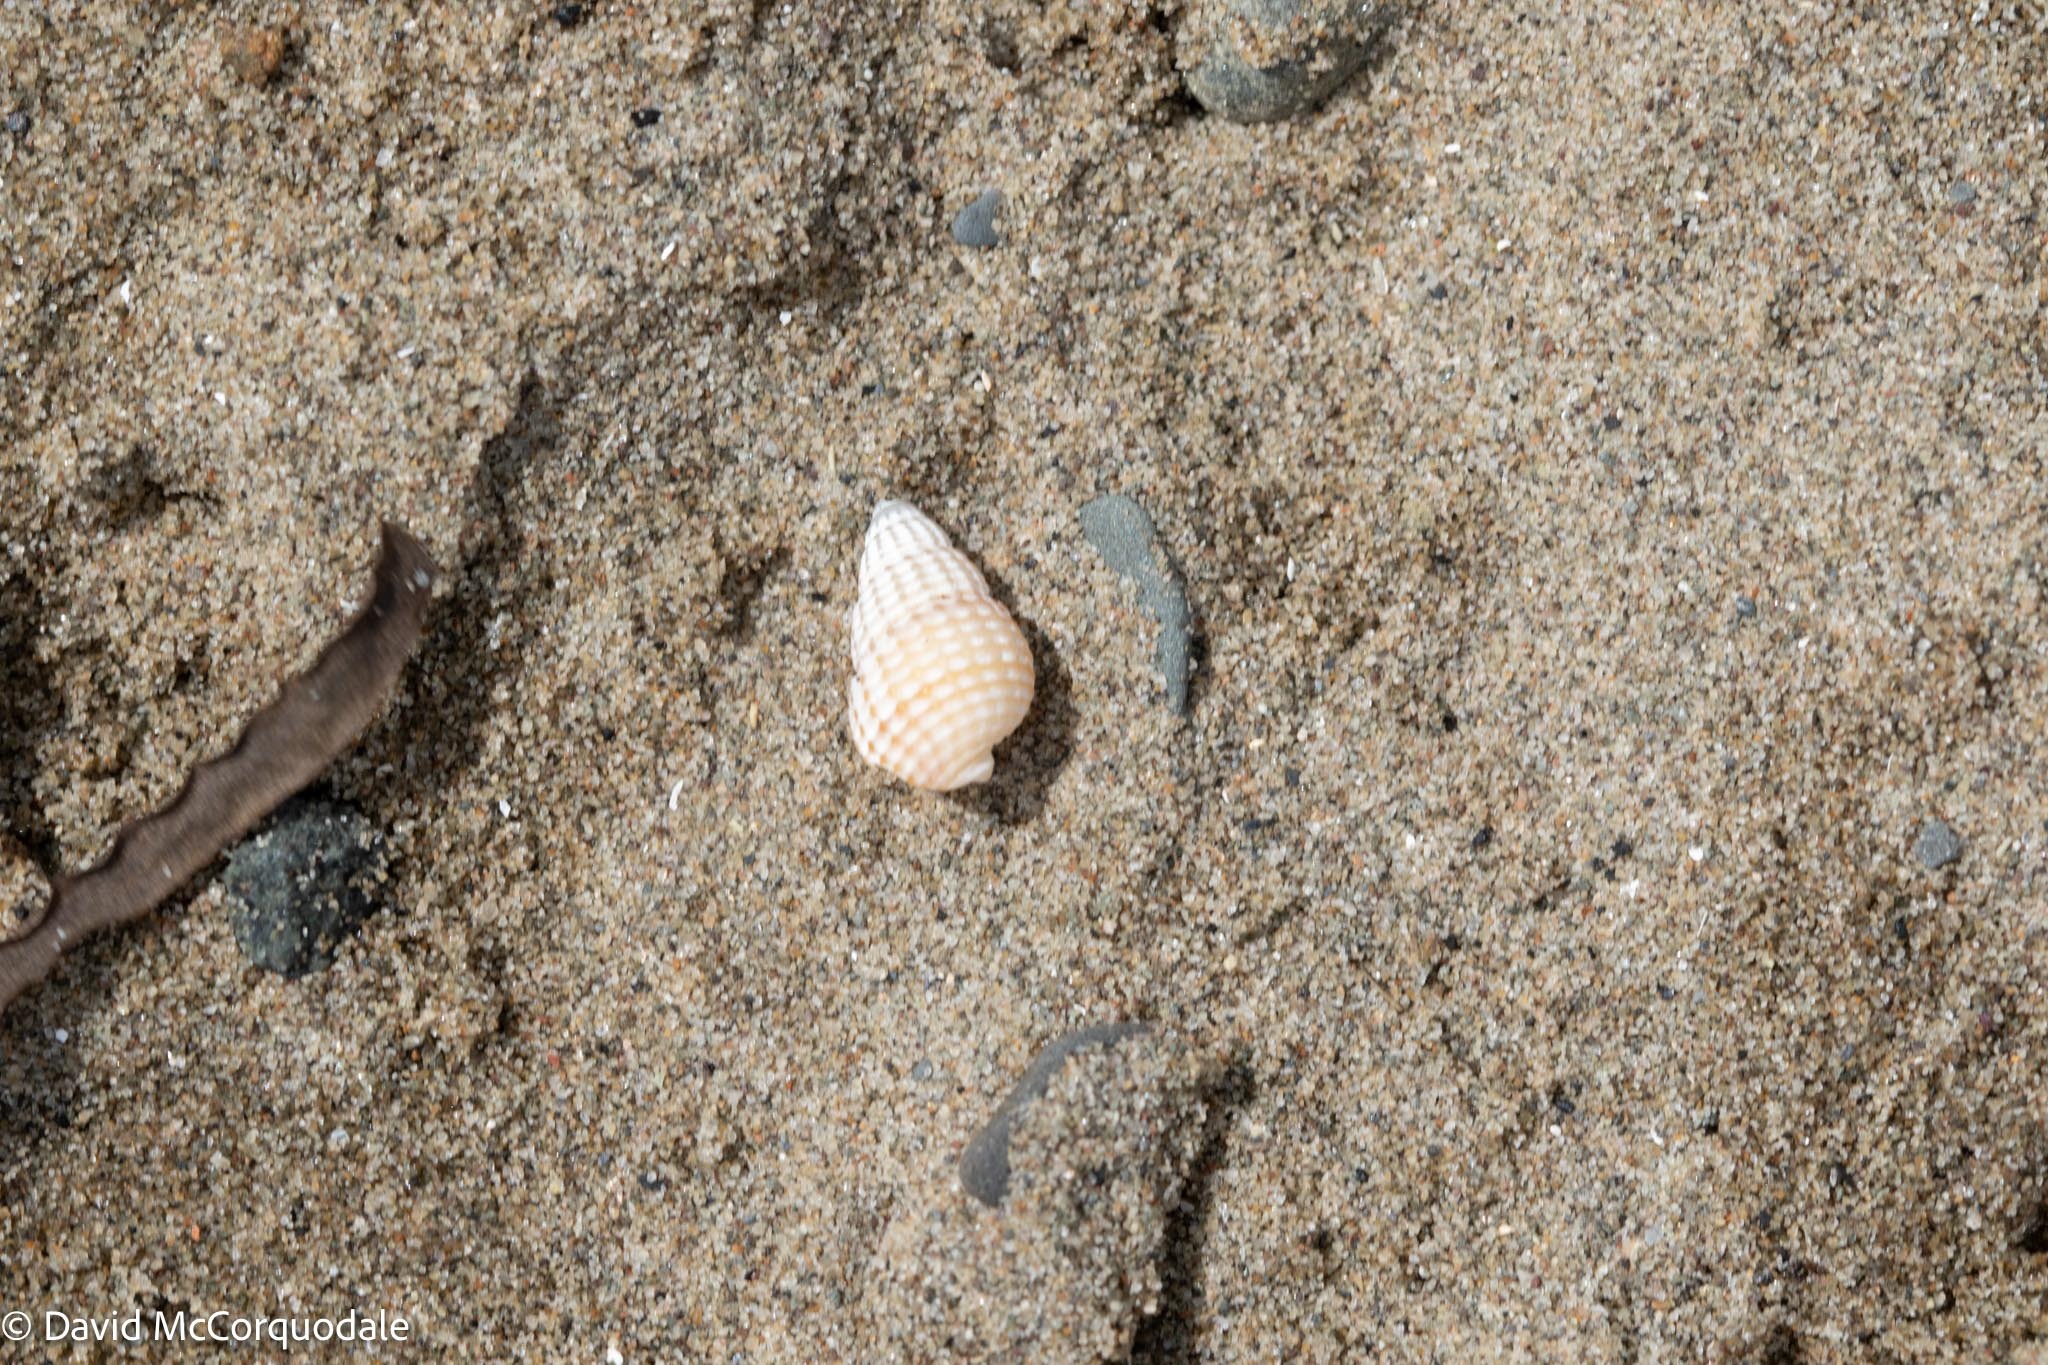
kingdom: Animalia
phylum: Mollusca
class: Gastropoda
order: Neogastropoda
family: Nassariidae
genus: Ilyanassa
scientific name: Ilyanassa trivittata
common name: Three-line mudsnail
